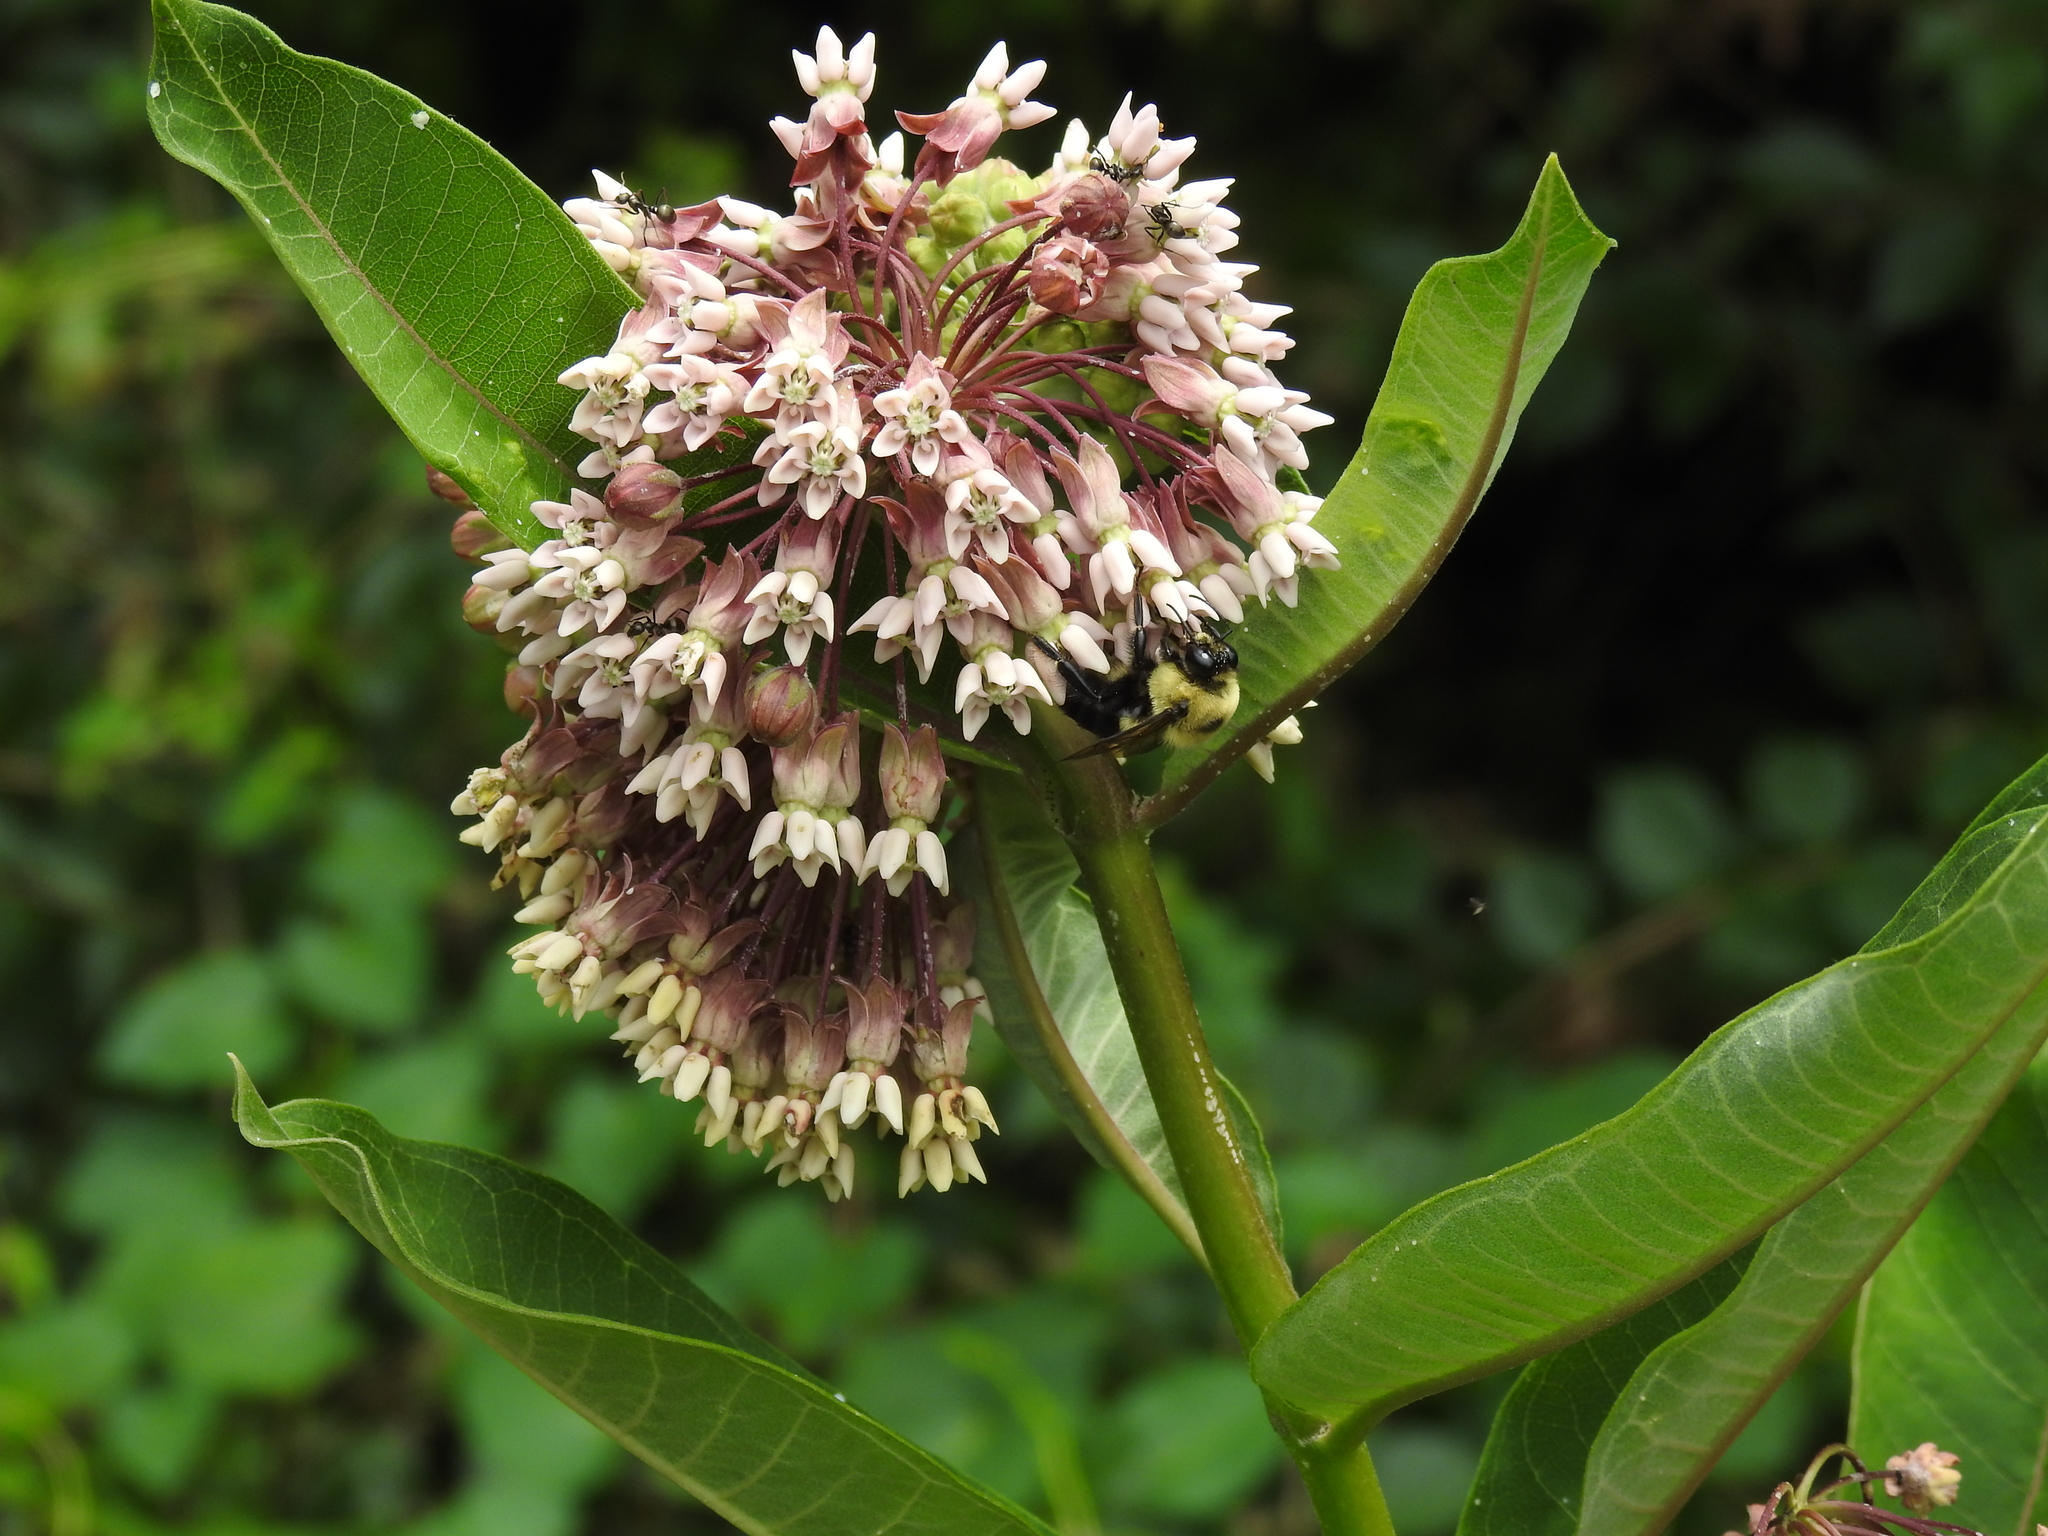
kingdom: Animalia
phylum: Arthropoda
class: Insecta
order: Hymenoptera
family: Apidae
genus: Bombus
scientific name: Bombus griseocollis
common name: Brown-belted bumble bee
